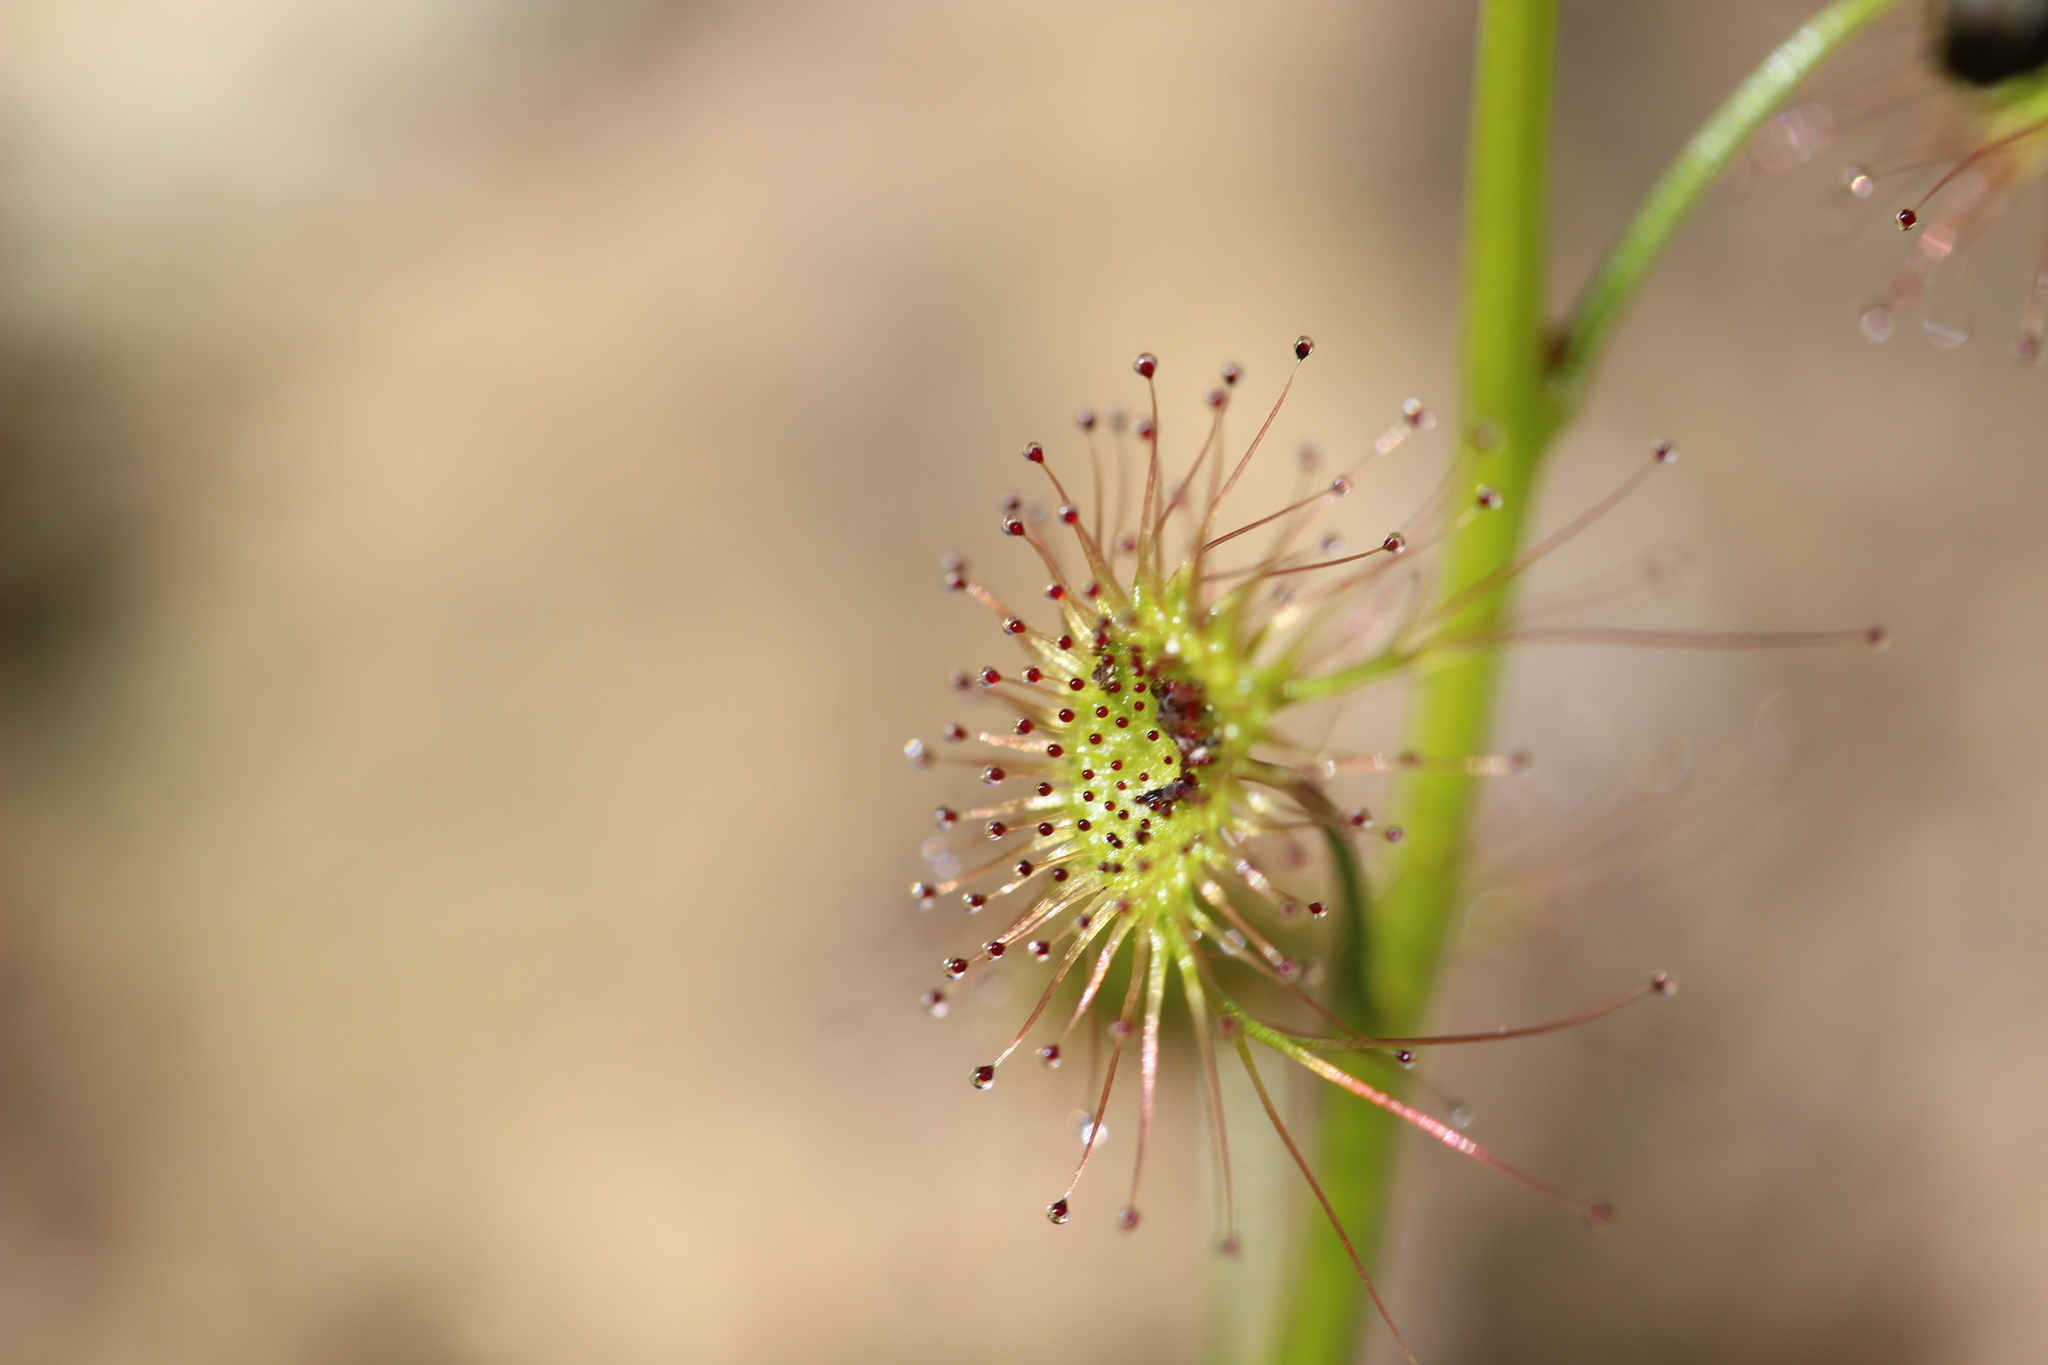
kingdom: Plantae
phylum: Tracheophyta
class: Magnoliopsida
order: Caryophyllales
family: Droseraceae
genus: Drosera
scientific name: Drosera peltata
